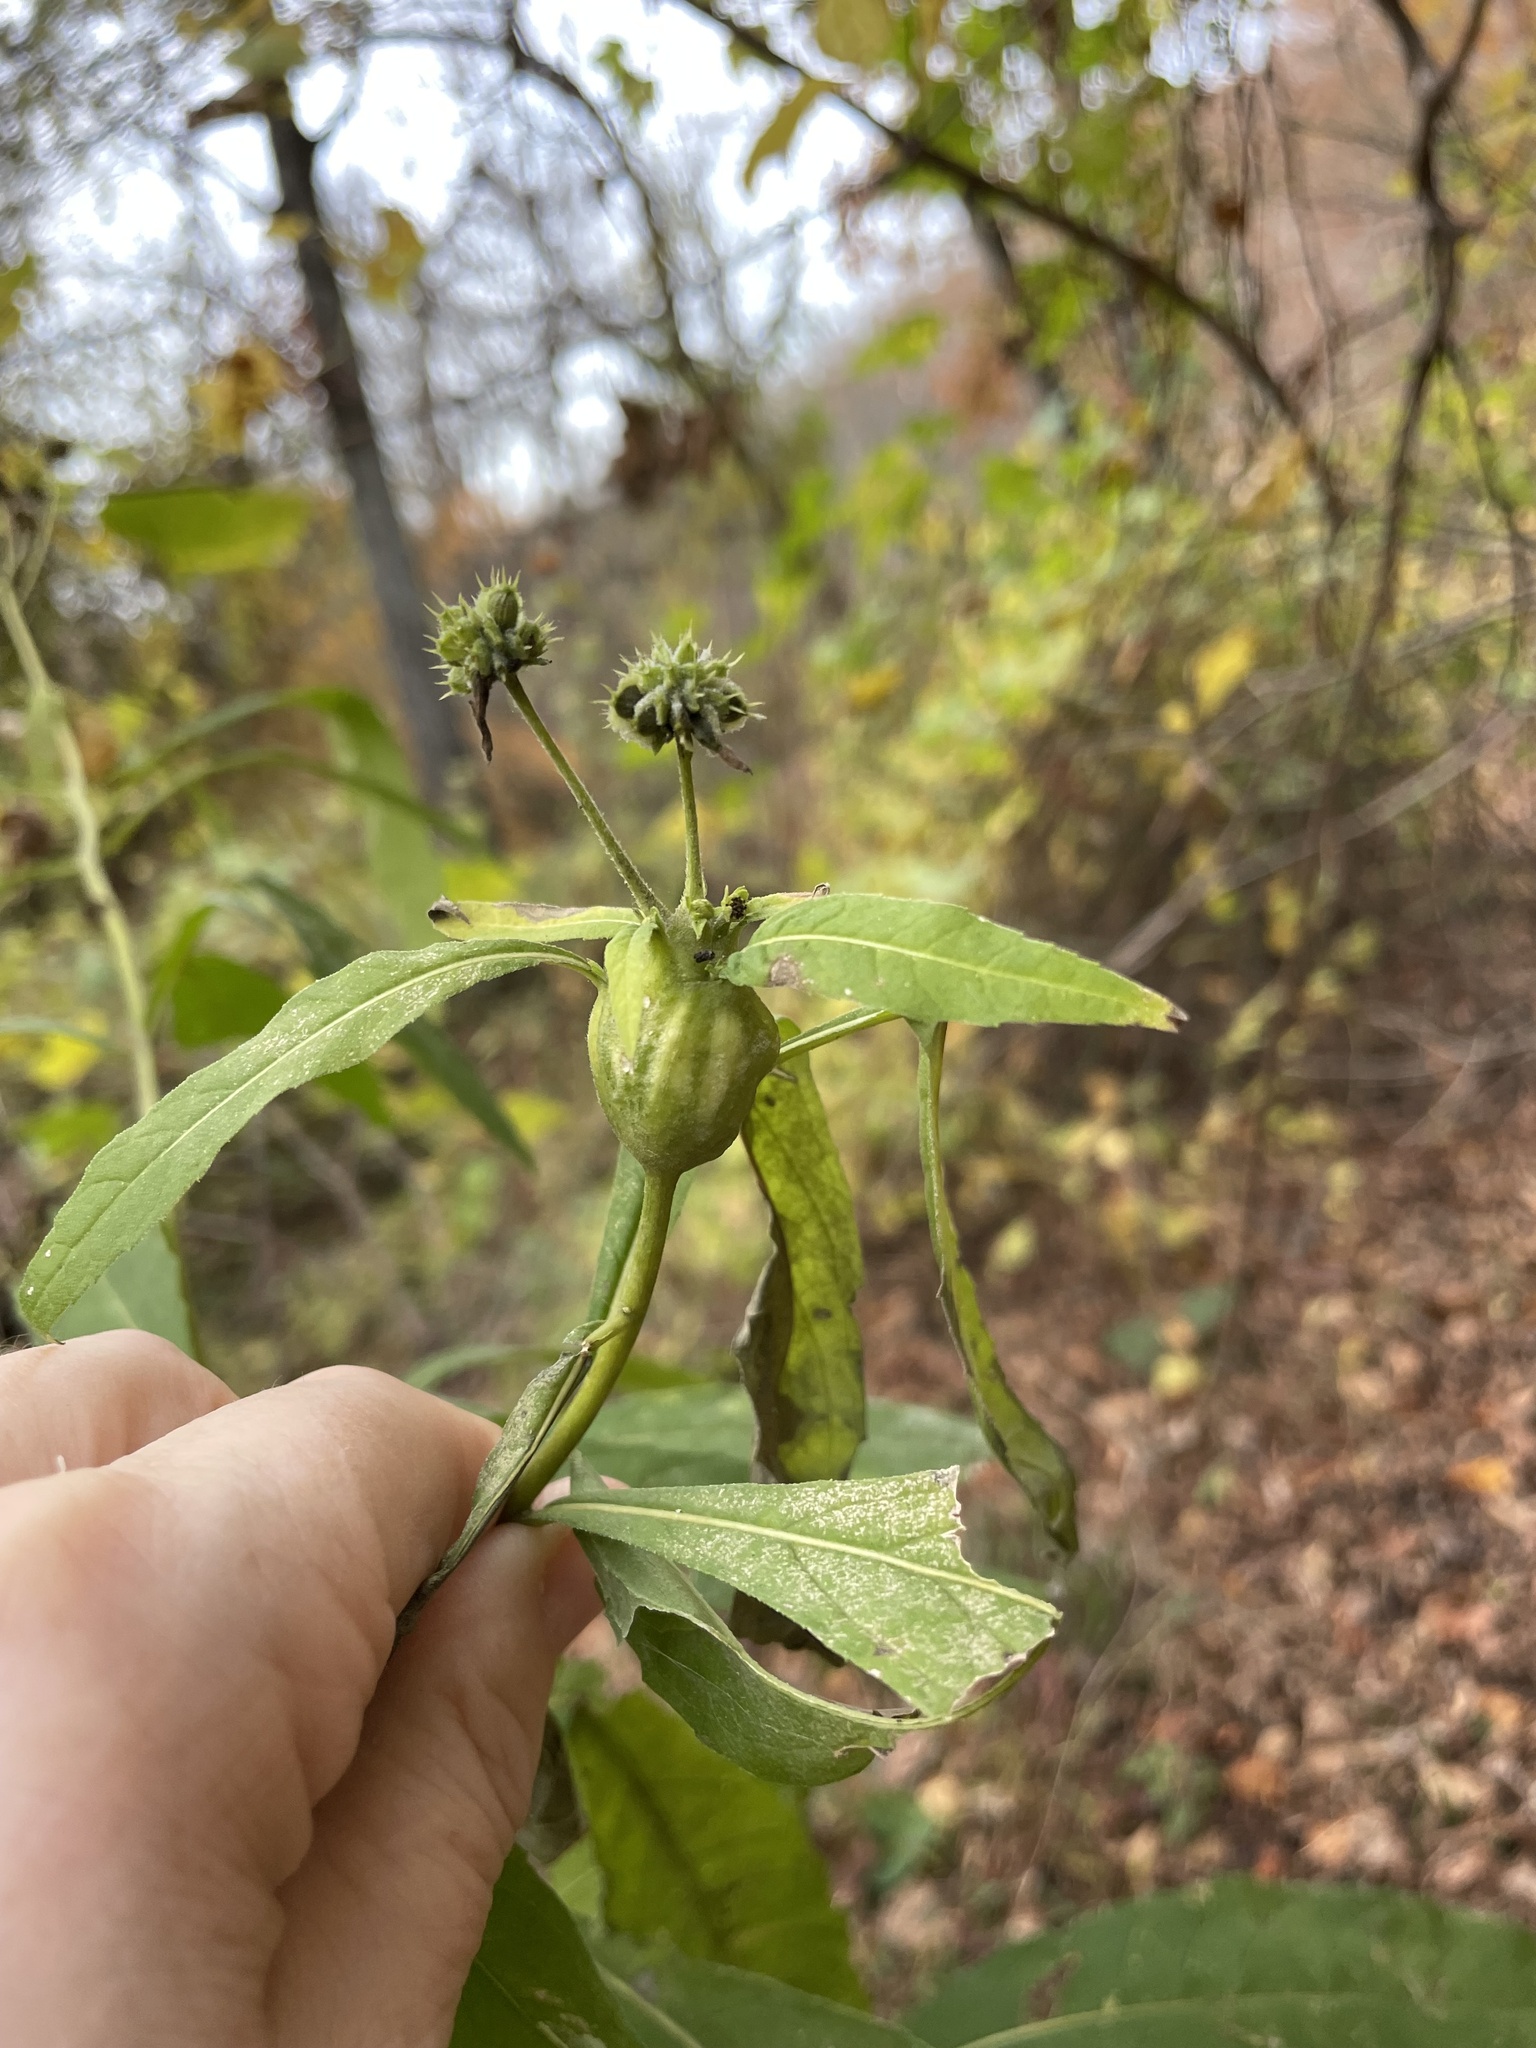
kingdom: Plantae
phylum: Tracheophyta
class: Magnoliopsida
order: Asterales
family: Asteraceae
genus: Verbesina
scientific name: Verbesina alternifolia
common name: Wingstem
